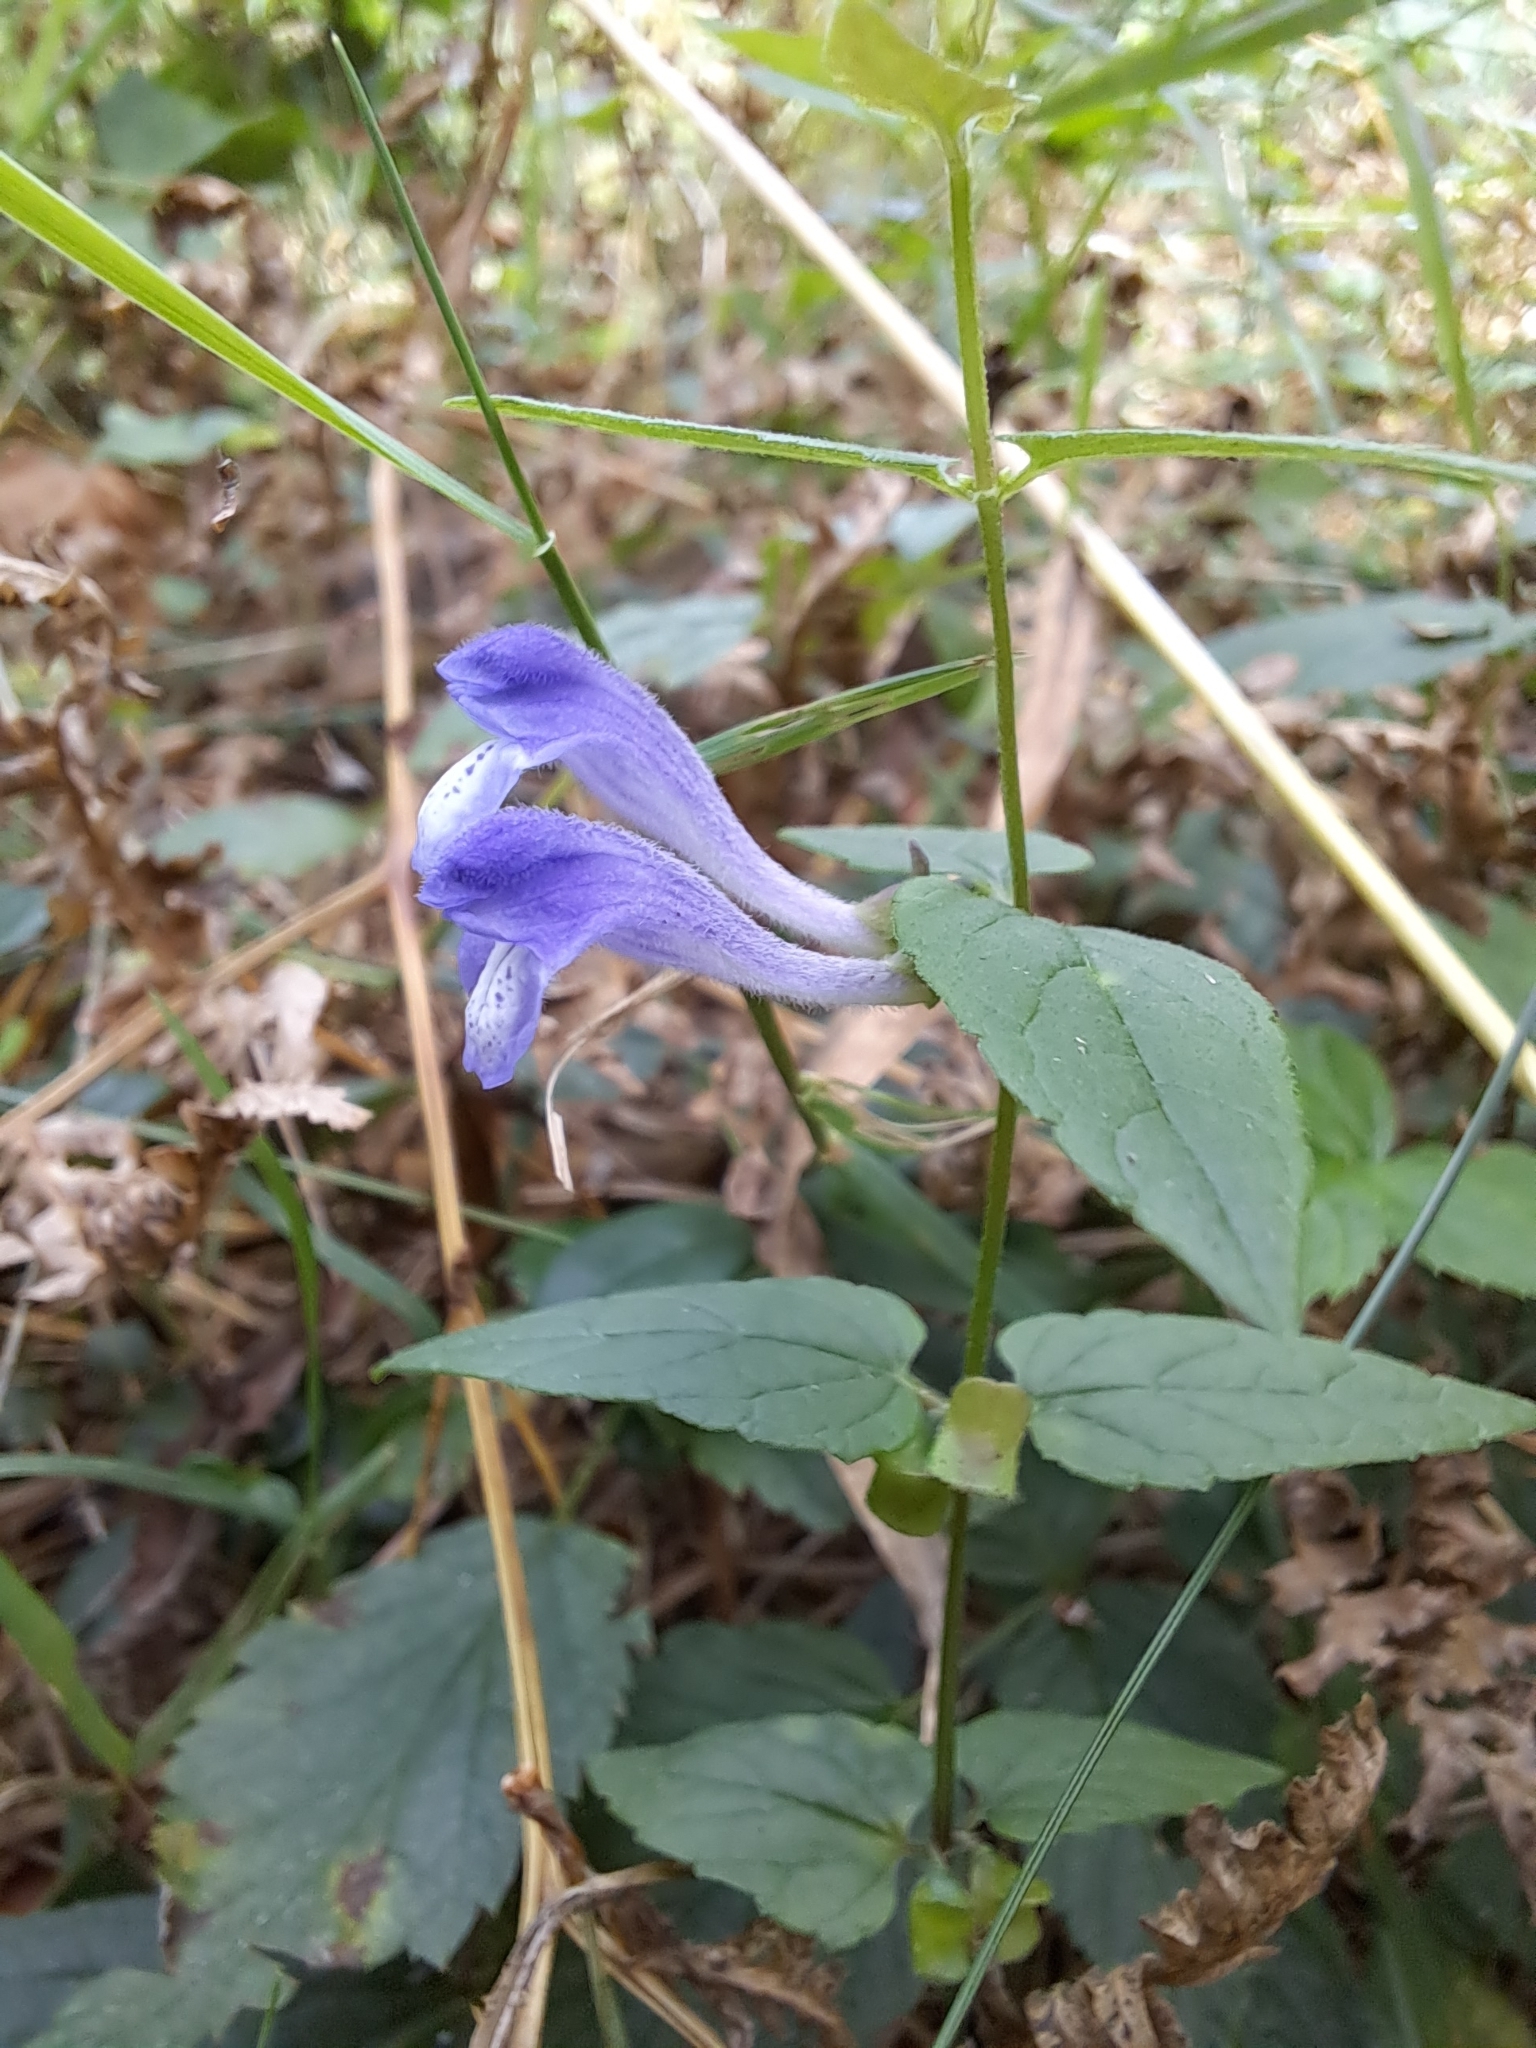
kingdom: Plantae
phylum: Tracheophyta
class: Magnoliopsida
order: Lamiales
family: Lamiaceae
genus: Scutellaria
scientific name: Scutellaria galericulata
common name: Skullcap
